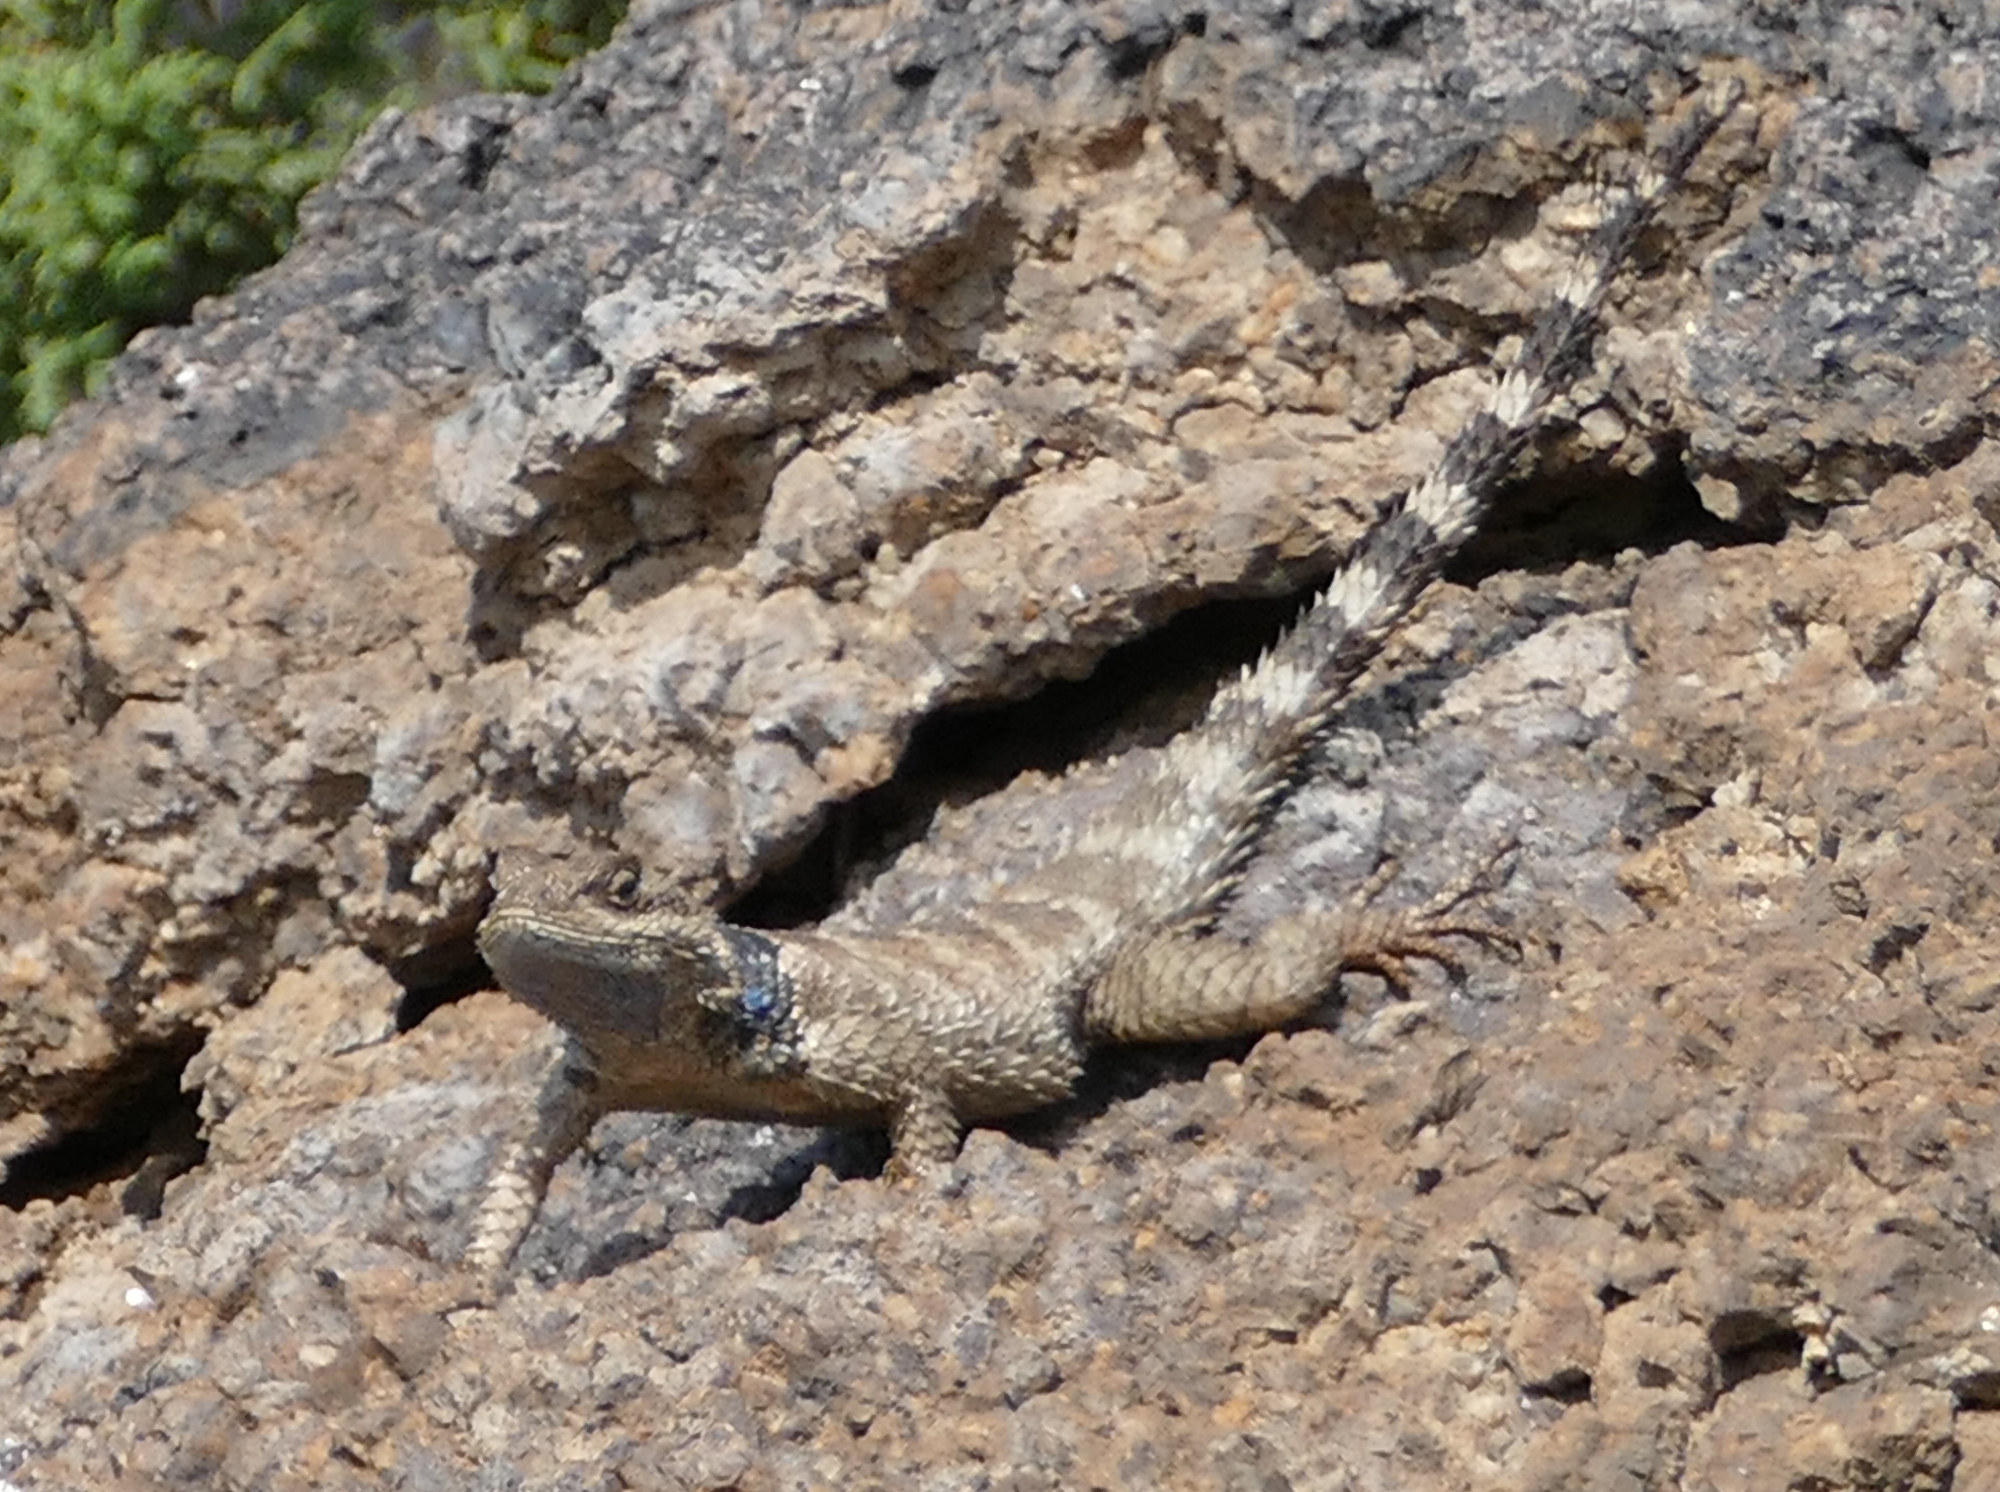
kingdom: Animalia
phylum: Chordata
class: Squamata
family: Phrynosomatidae
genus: Sceloporus
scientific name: Sceloporus poinsettii
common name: Crevice spiny lizard
